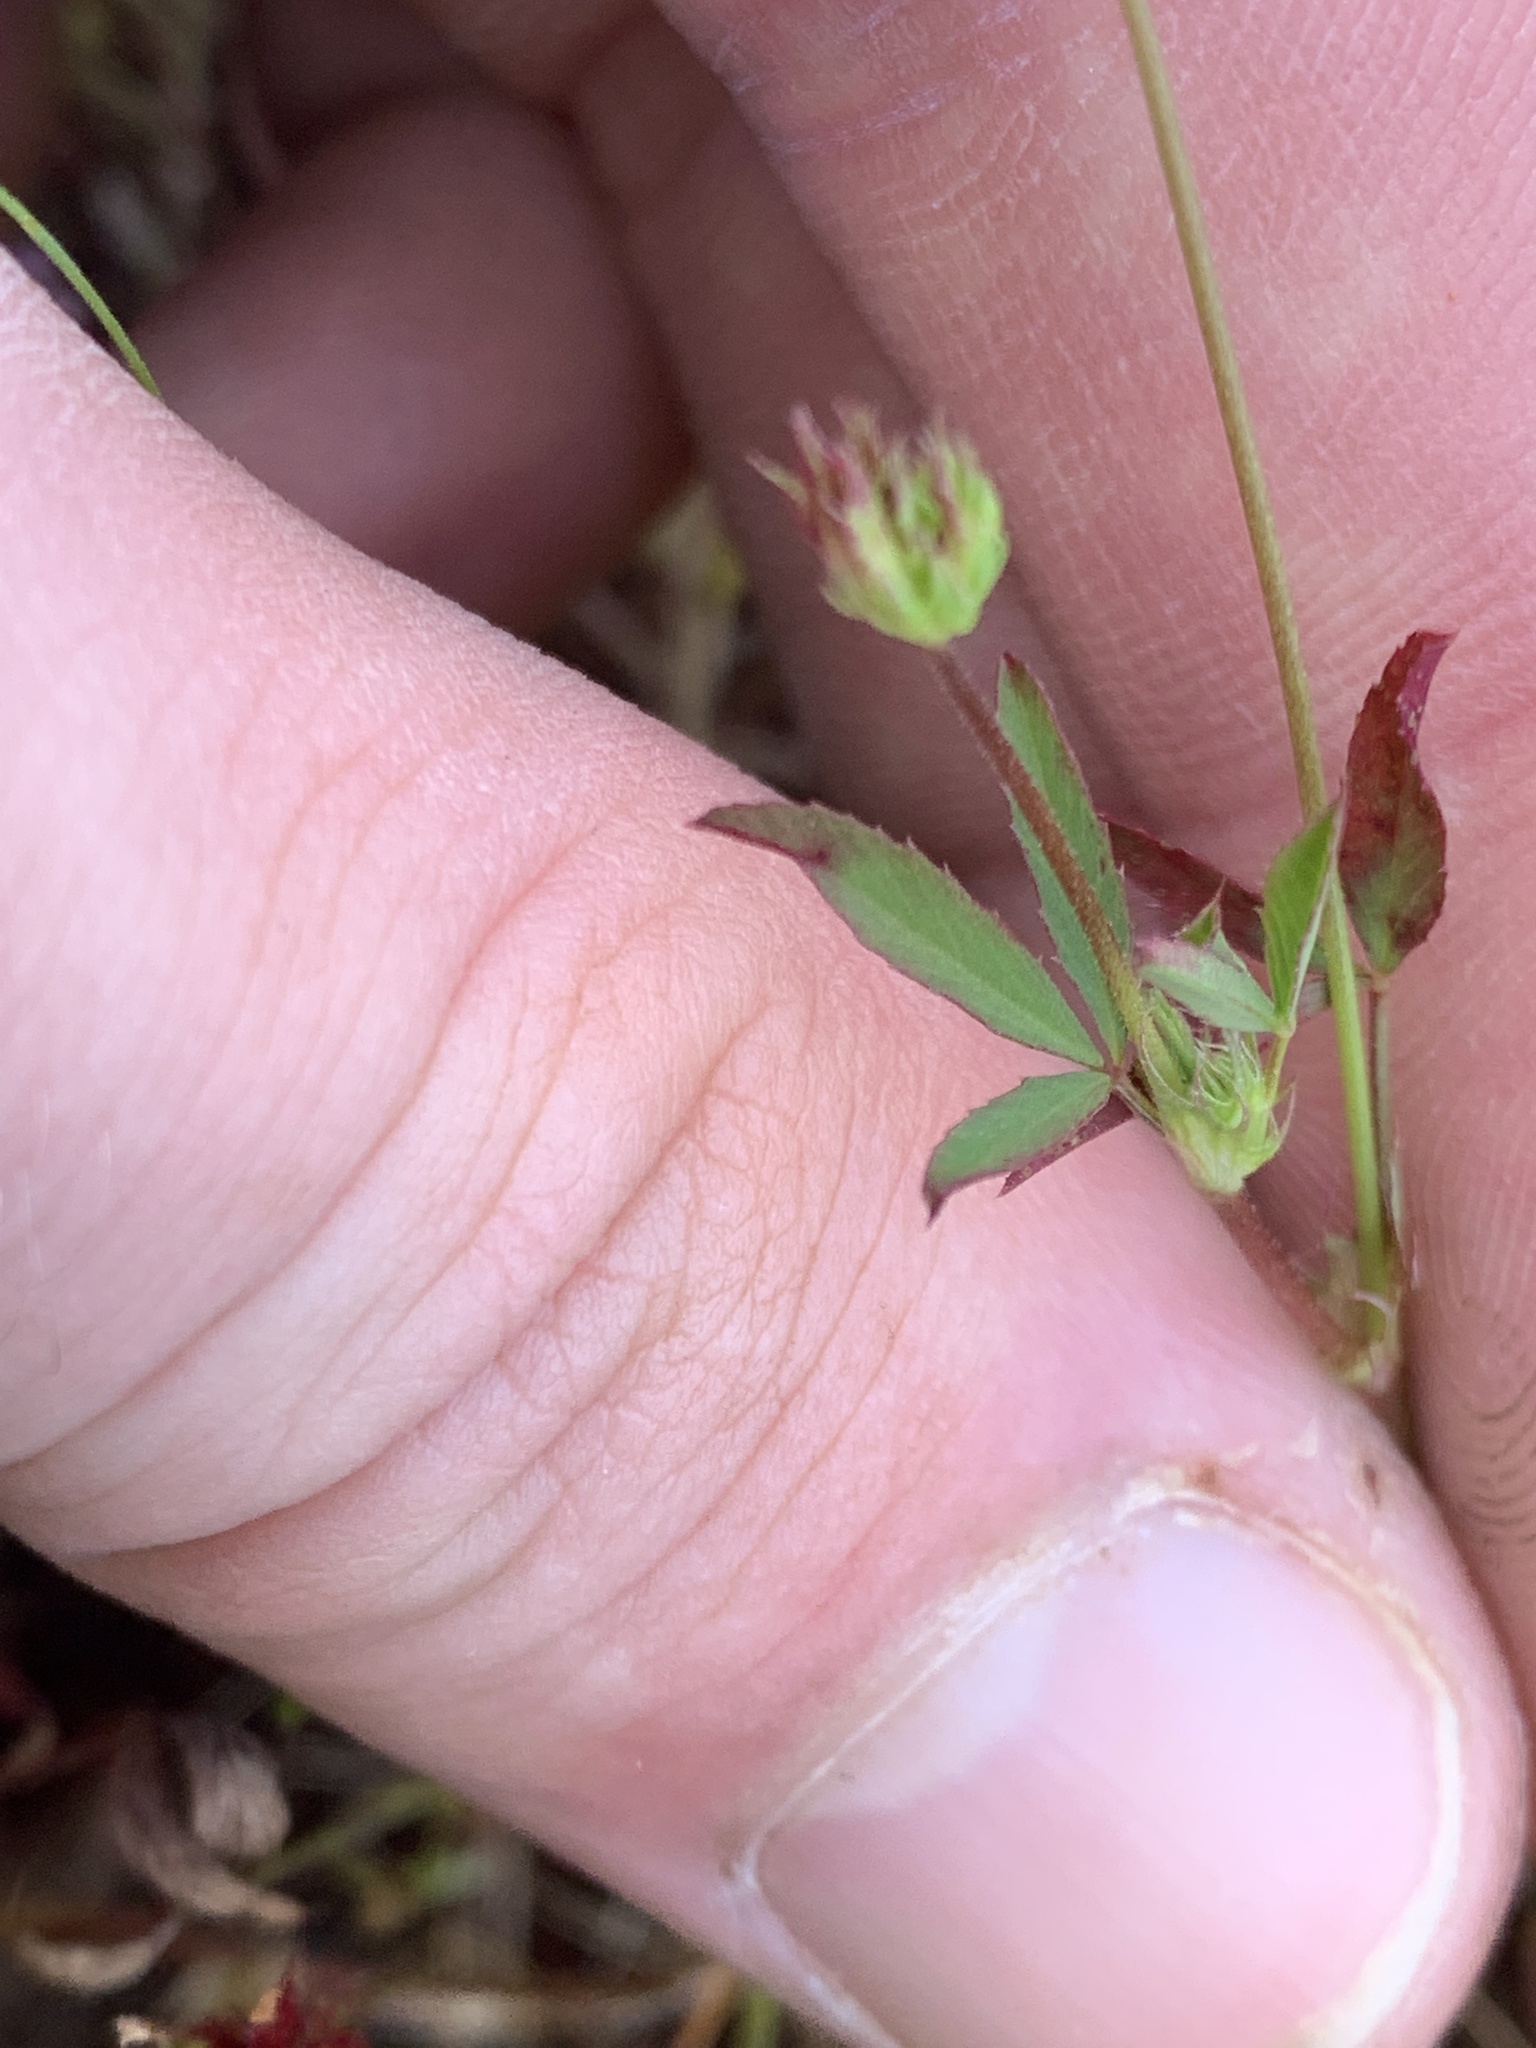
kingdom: Plantae
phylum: Tracheophyta
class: Magnoliopsida
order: Fabales
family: Fabaceae
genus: Trifolium
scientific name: Trifolium oliganthum
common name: Few-flower clover
